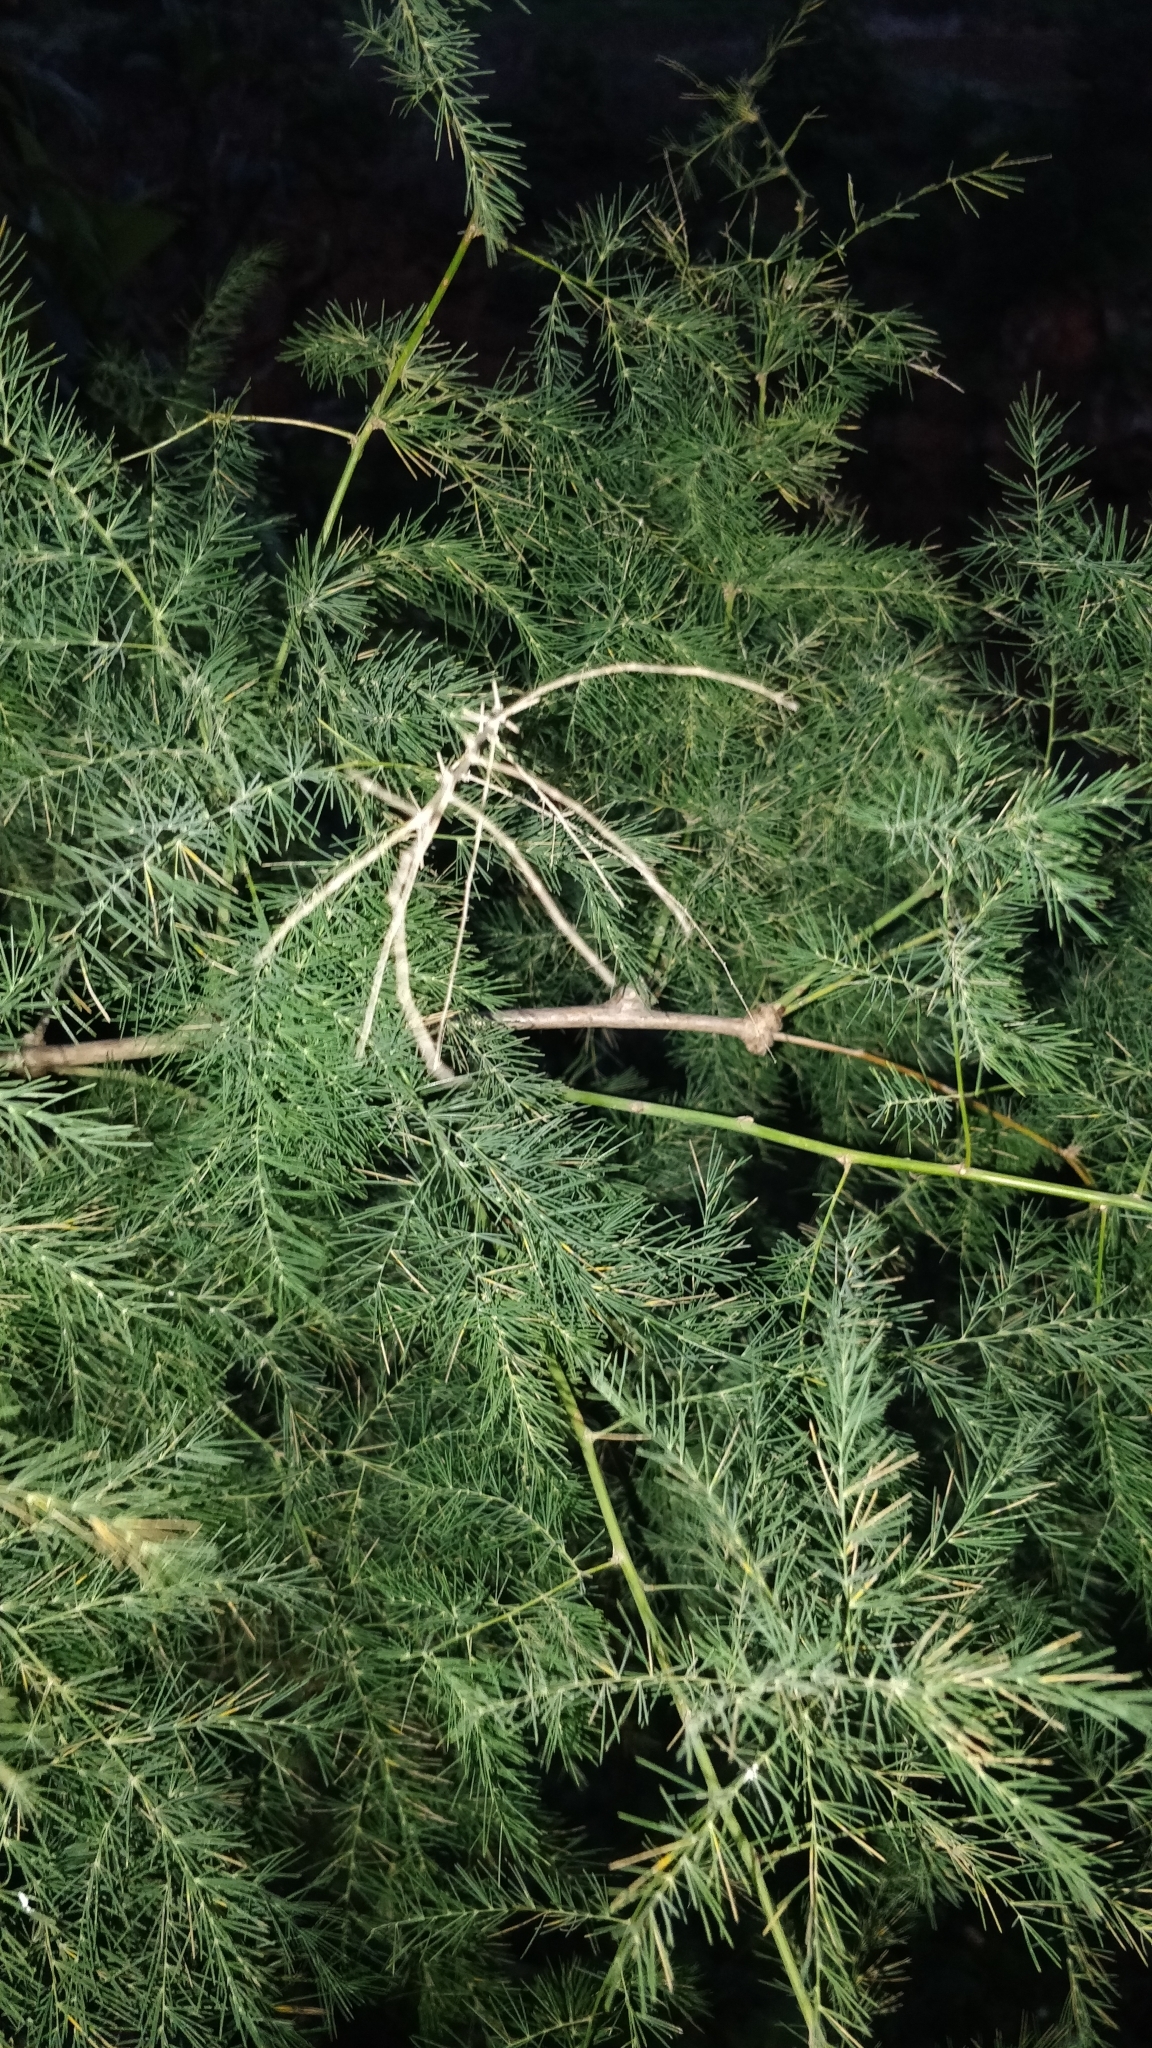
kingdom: Plantae
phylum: Tracheophyta
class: Liliopsida
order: Asparagales
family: Asparagaceae
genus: Asparagus
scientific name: Asparagus umbellatus
